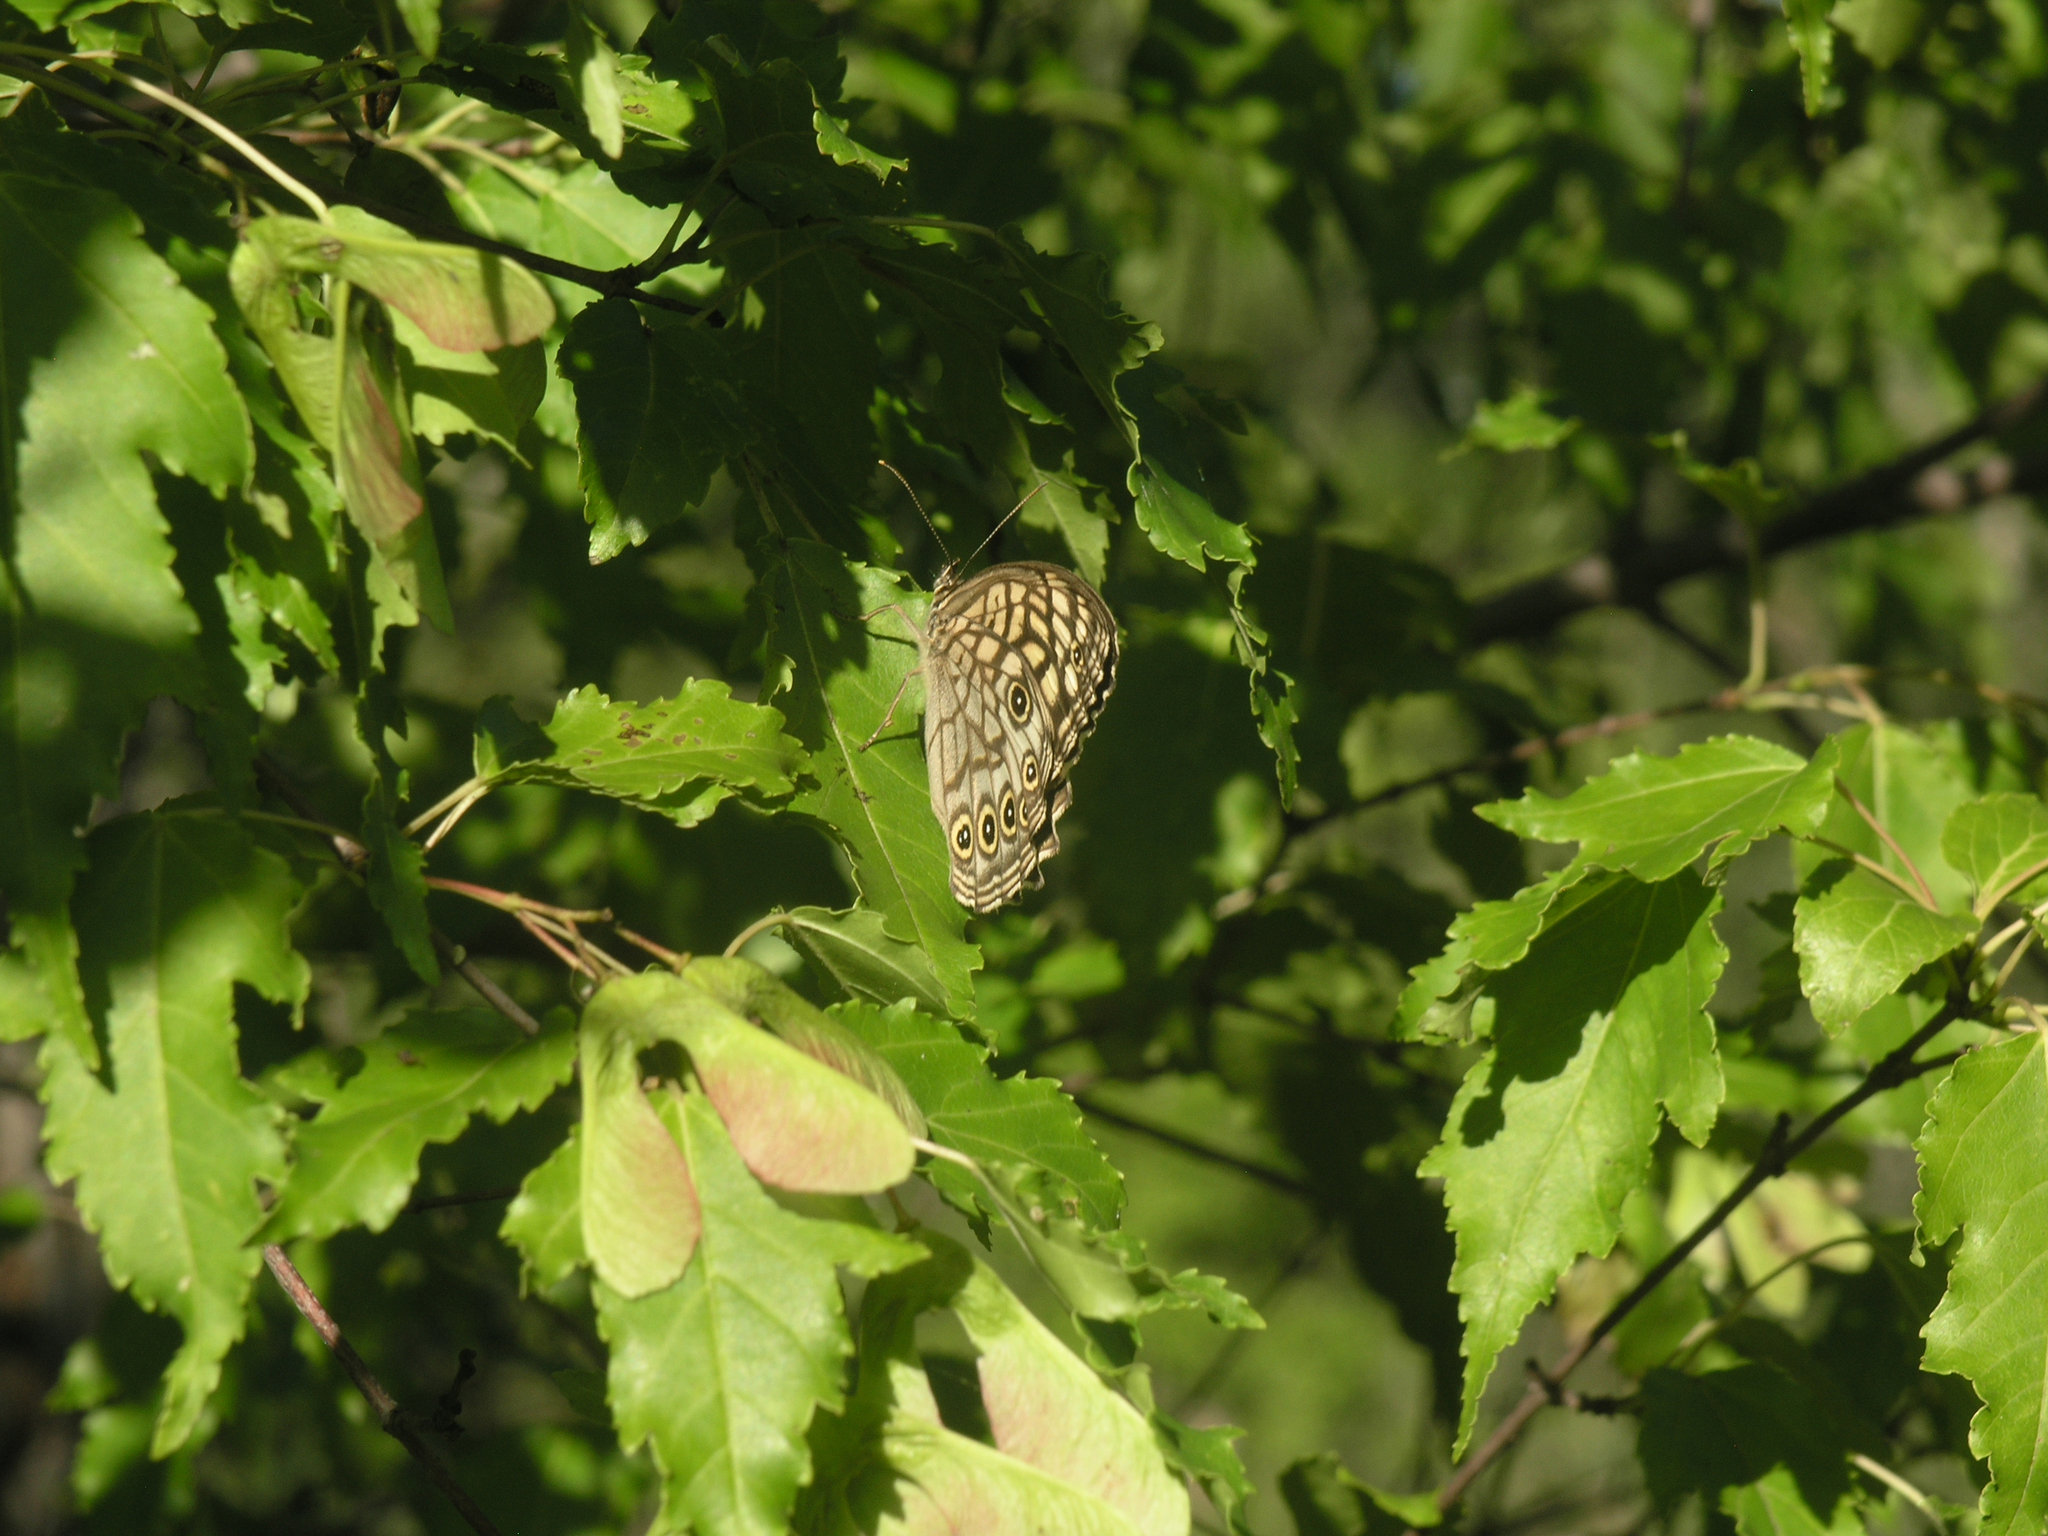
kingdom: Plantae
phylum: Tracheophyta
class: Magnoliopsida
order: Sapindales
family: Sapindaceae
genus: Acer
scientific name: Acer tataricum
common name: Tartar maple
